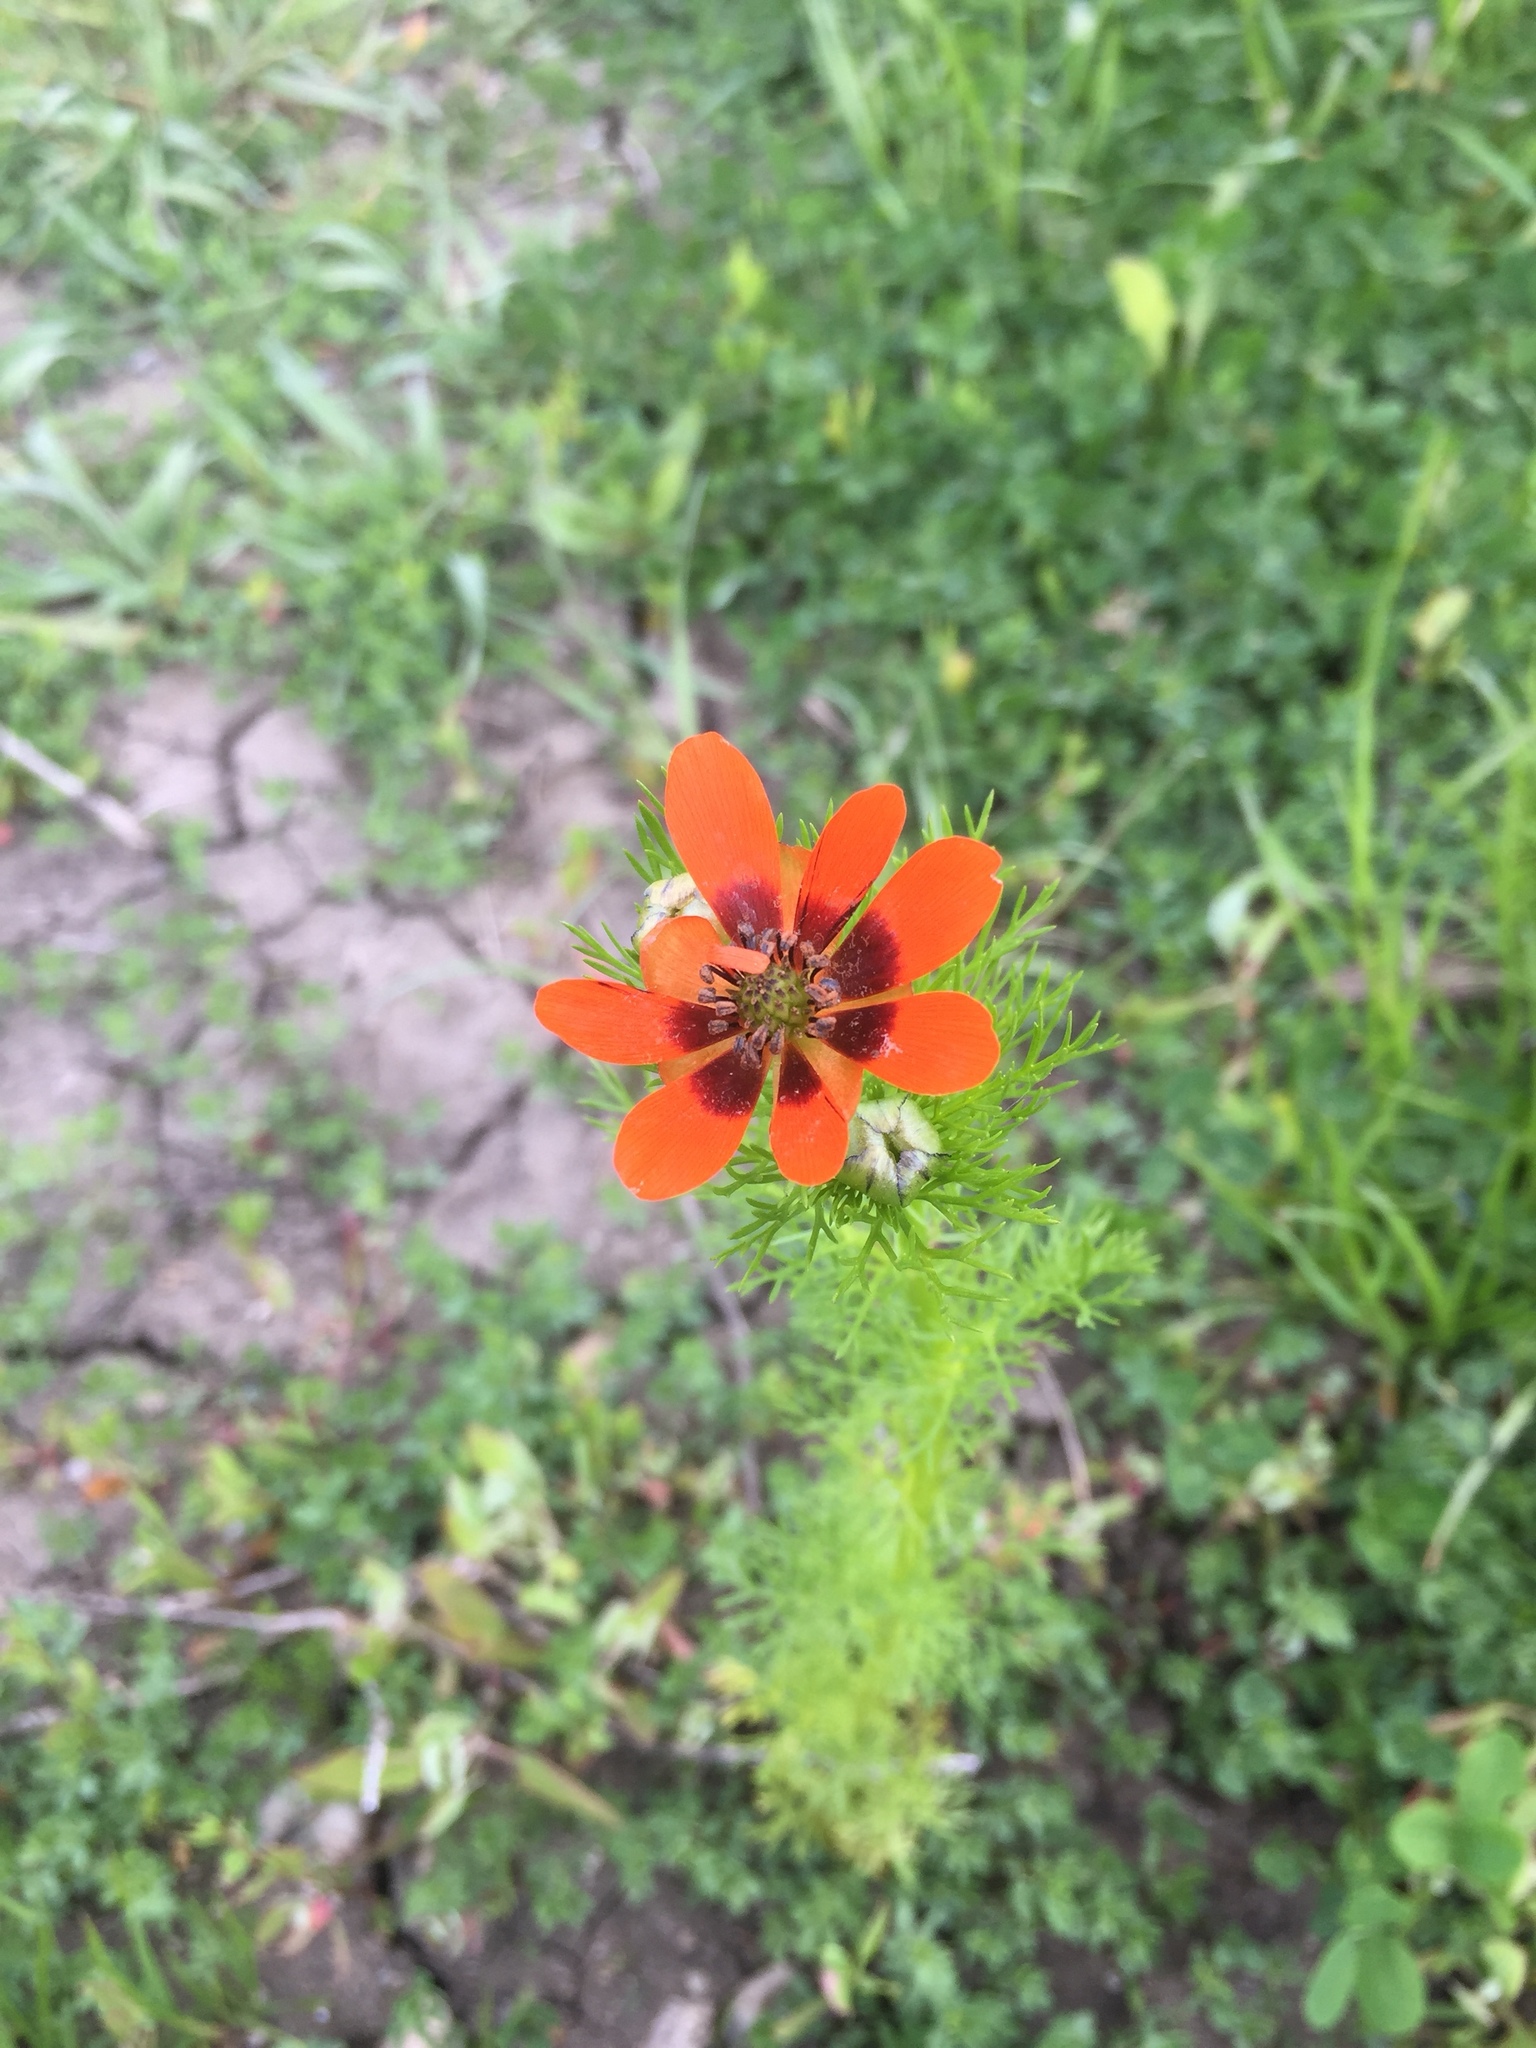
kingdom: Plantae
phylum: Tracheophyta
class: Magnoliopsida
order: Ranunculales
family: Ranunculaceae
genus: Adonis
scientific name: Adonis flammea
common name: Large pheasant's-eye
